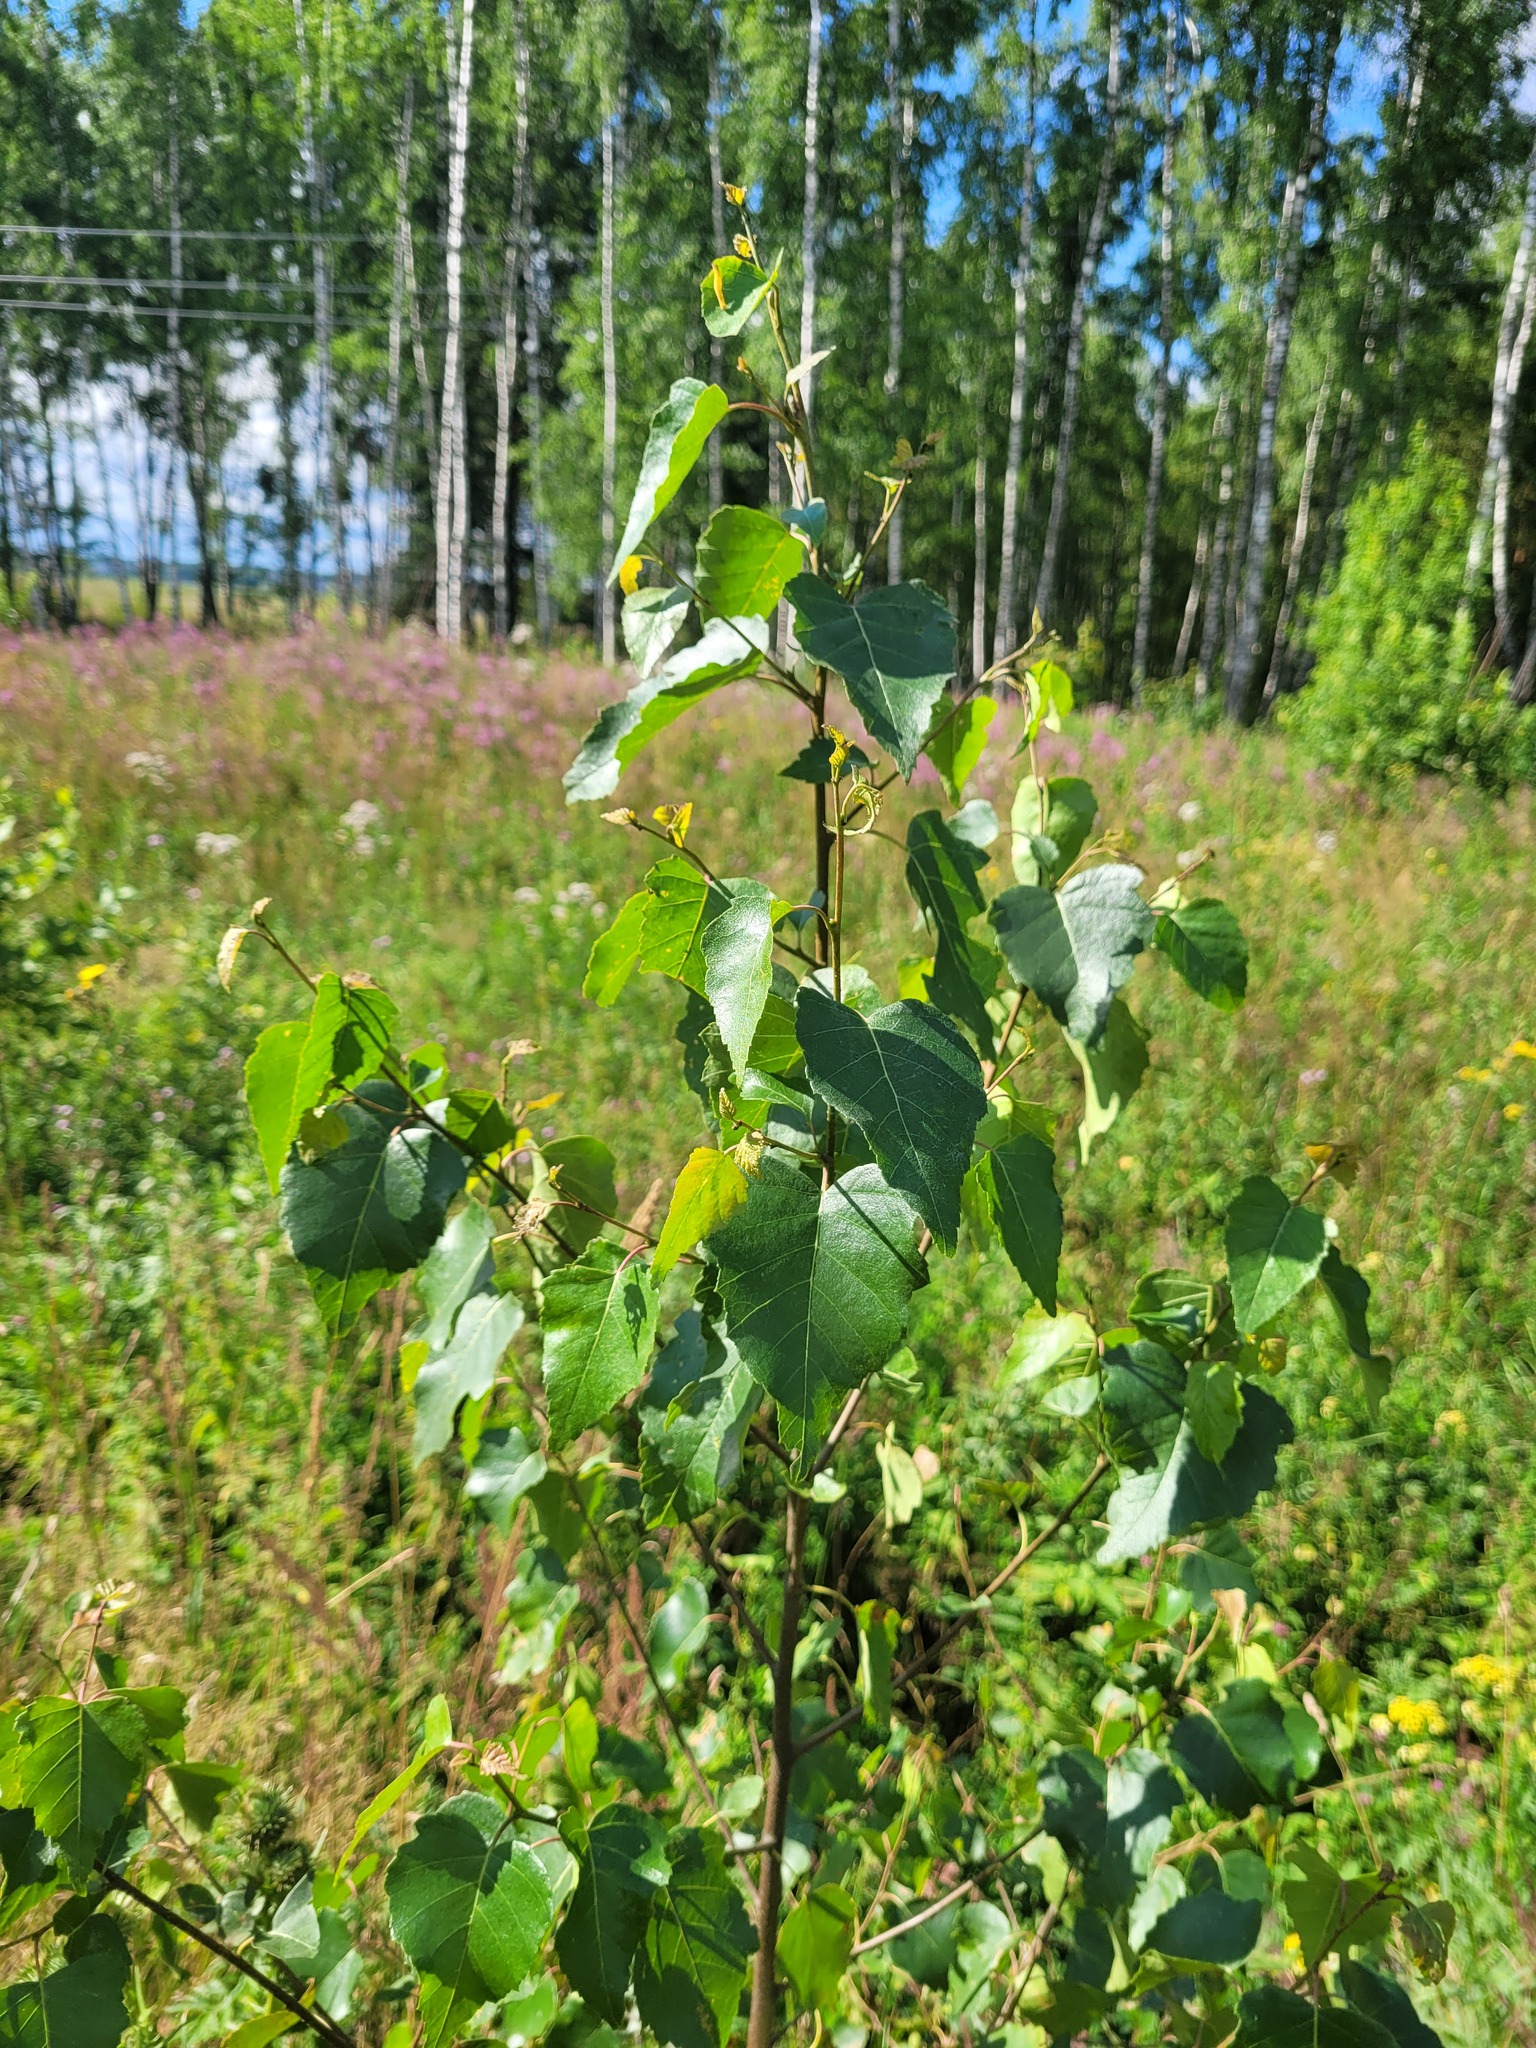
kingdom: Plantae
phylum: Tracheophyta
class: Magnoliopsida
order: Fagales
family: Betulaceae
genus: Betula
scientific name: Betula pendula
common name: Silver birch
